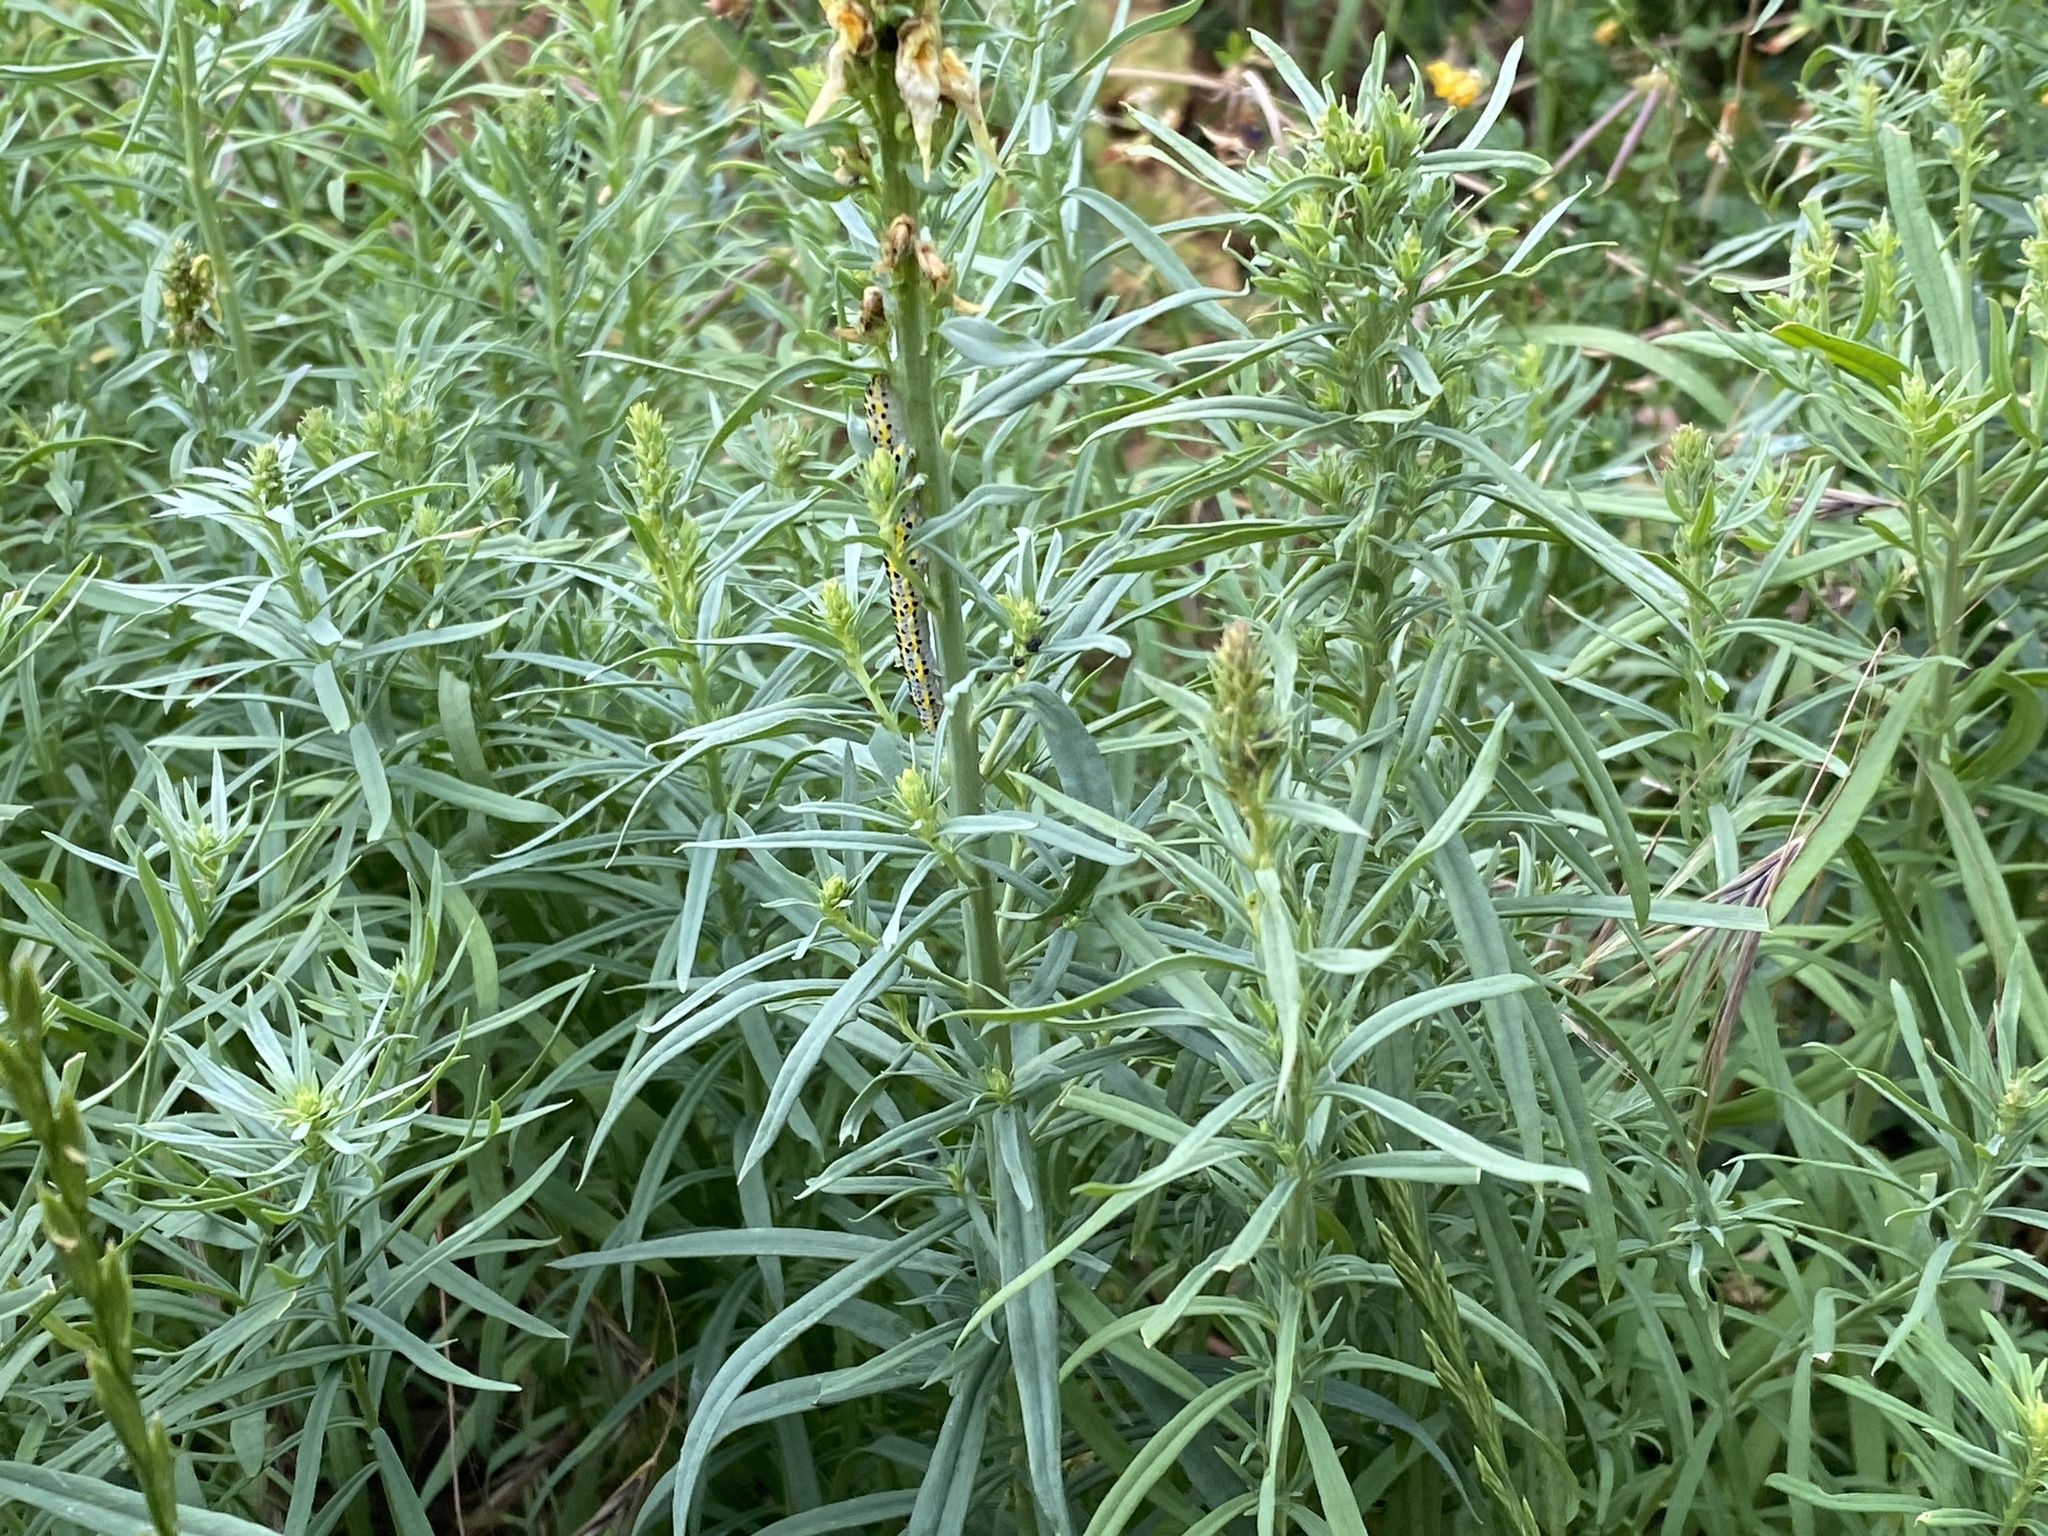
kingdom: Animalia
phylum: Arthropoda
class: Insecta
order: Lepidoptera
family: Noctuidae
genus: Calophasia
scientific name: Calophasia lunula
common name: Toadflax brocade
